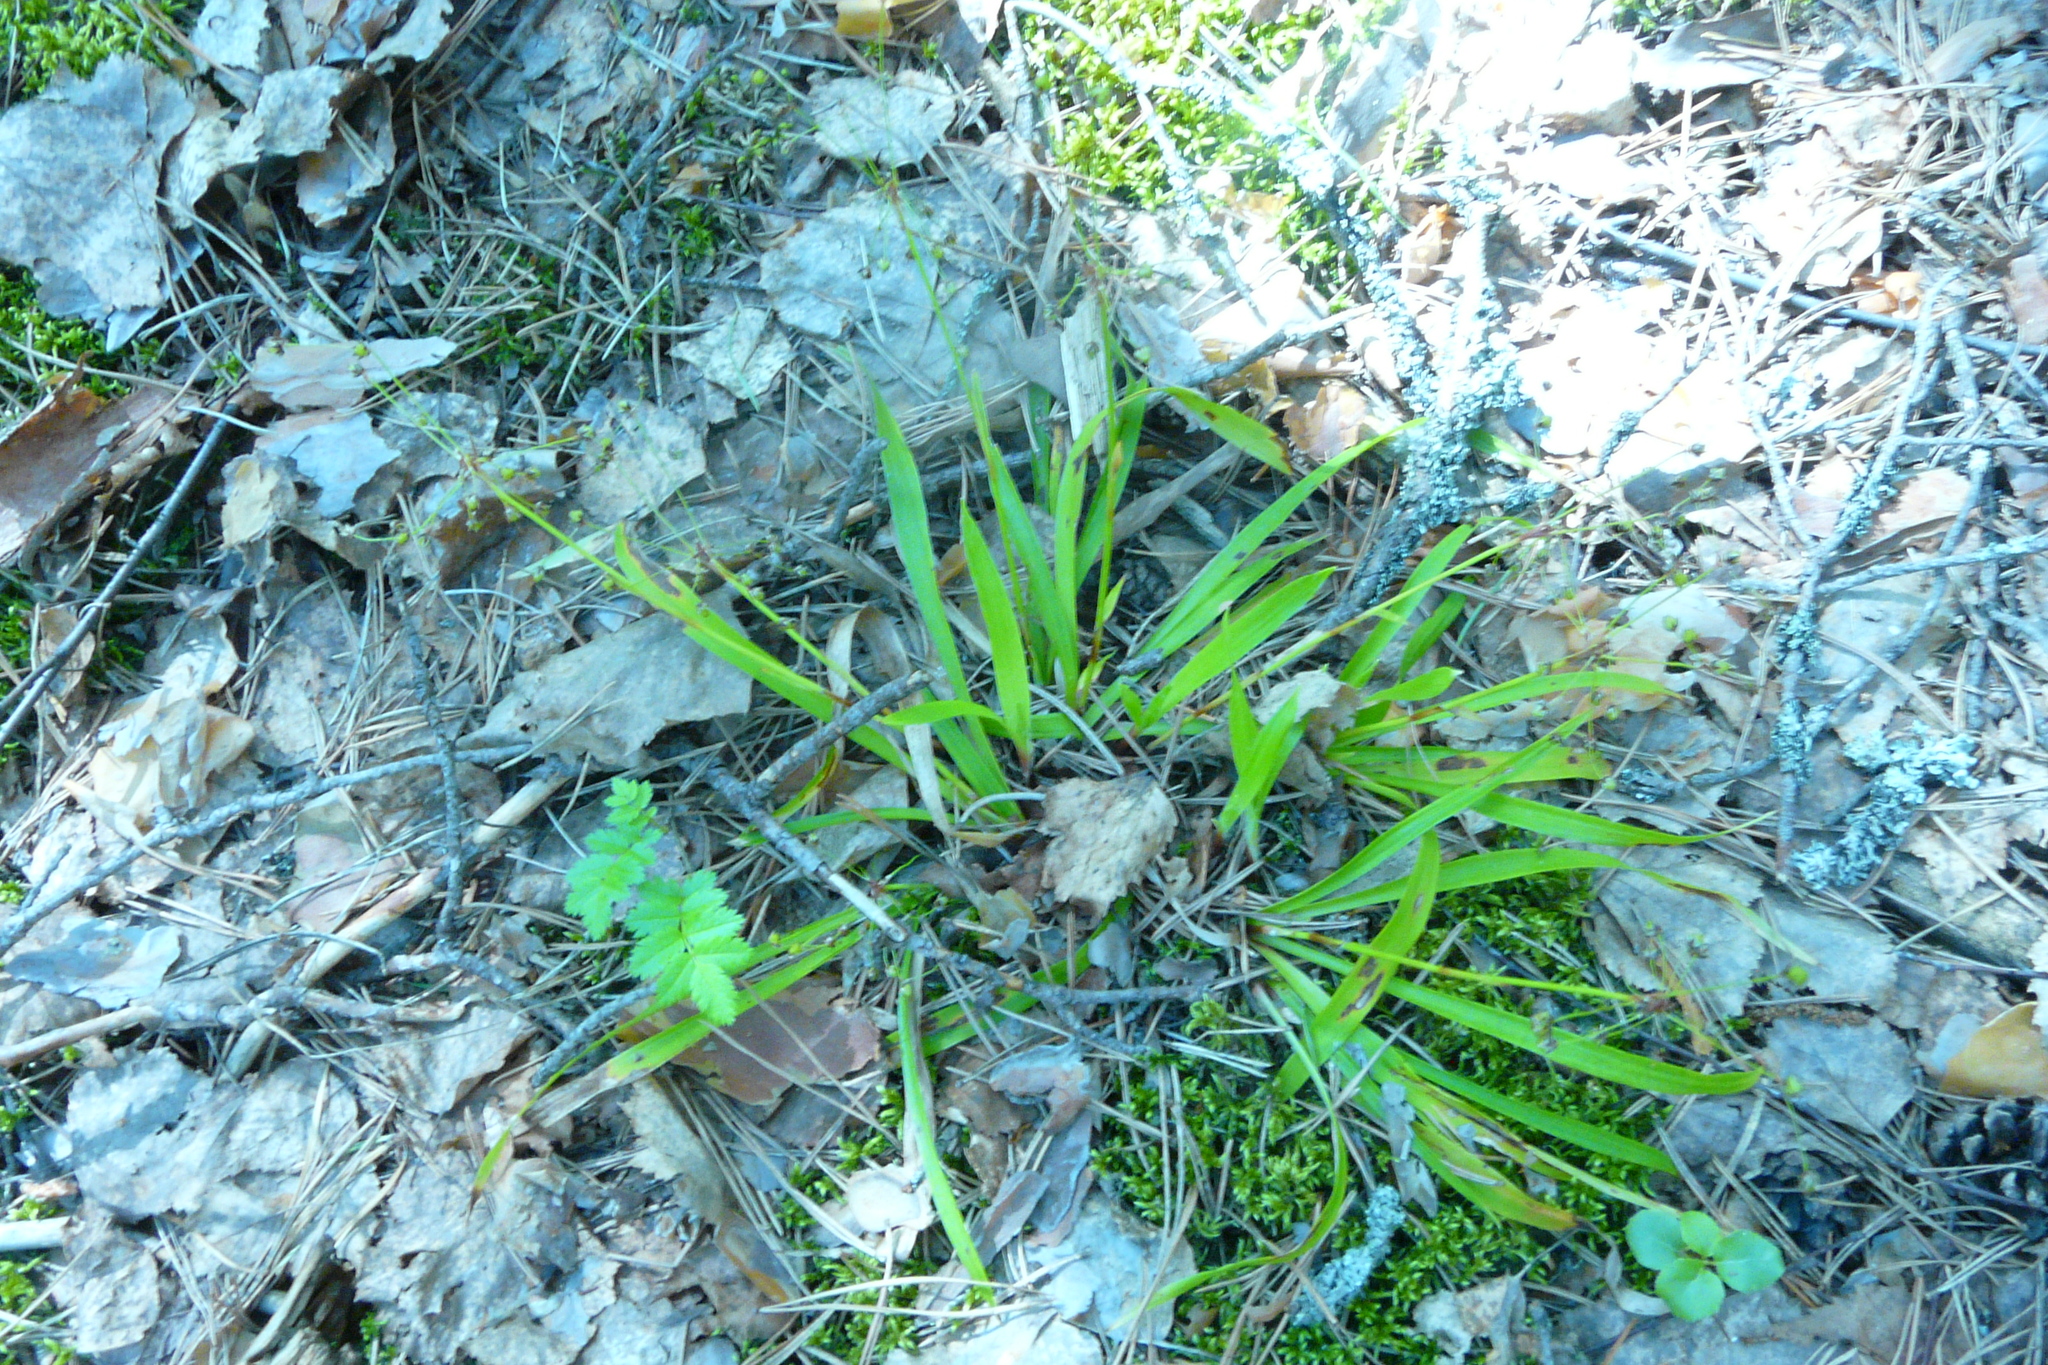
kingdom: Plantae
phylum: Tracheophyta
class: Liliopsida
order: Poales
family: Juncaceae
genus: Luzula
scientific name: Luzula pilosa
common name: Hairy wood-rush
